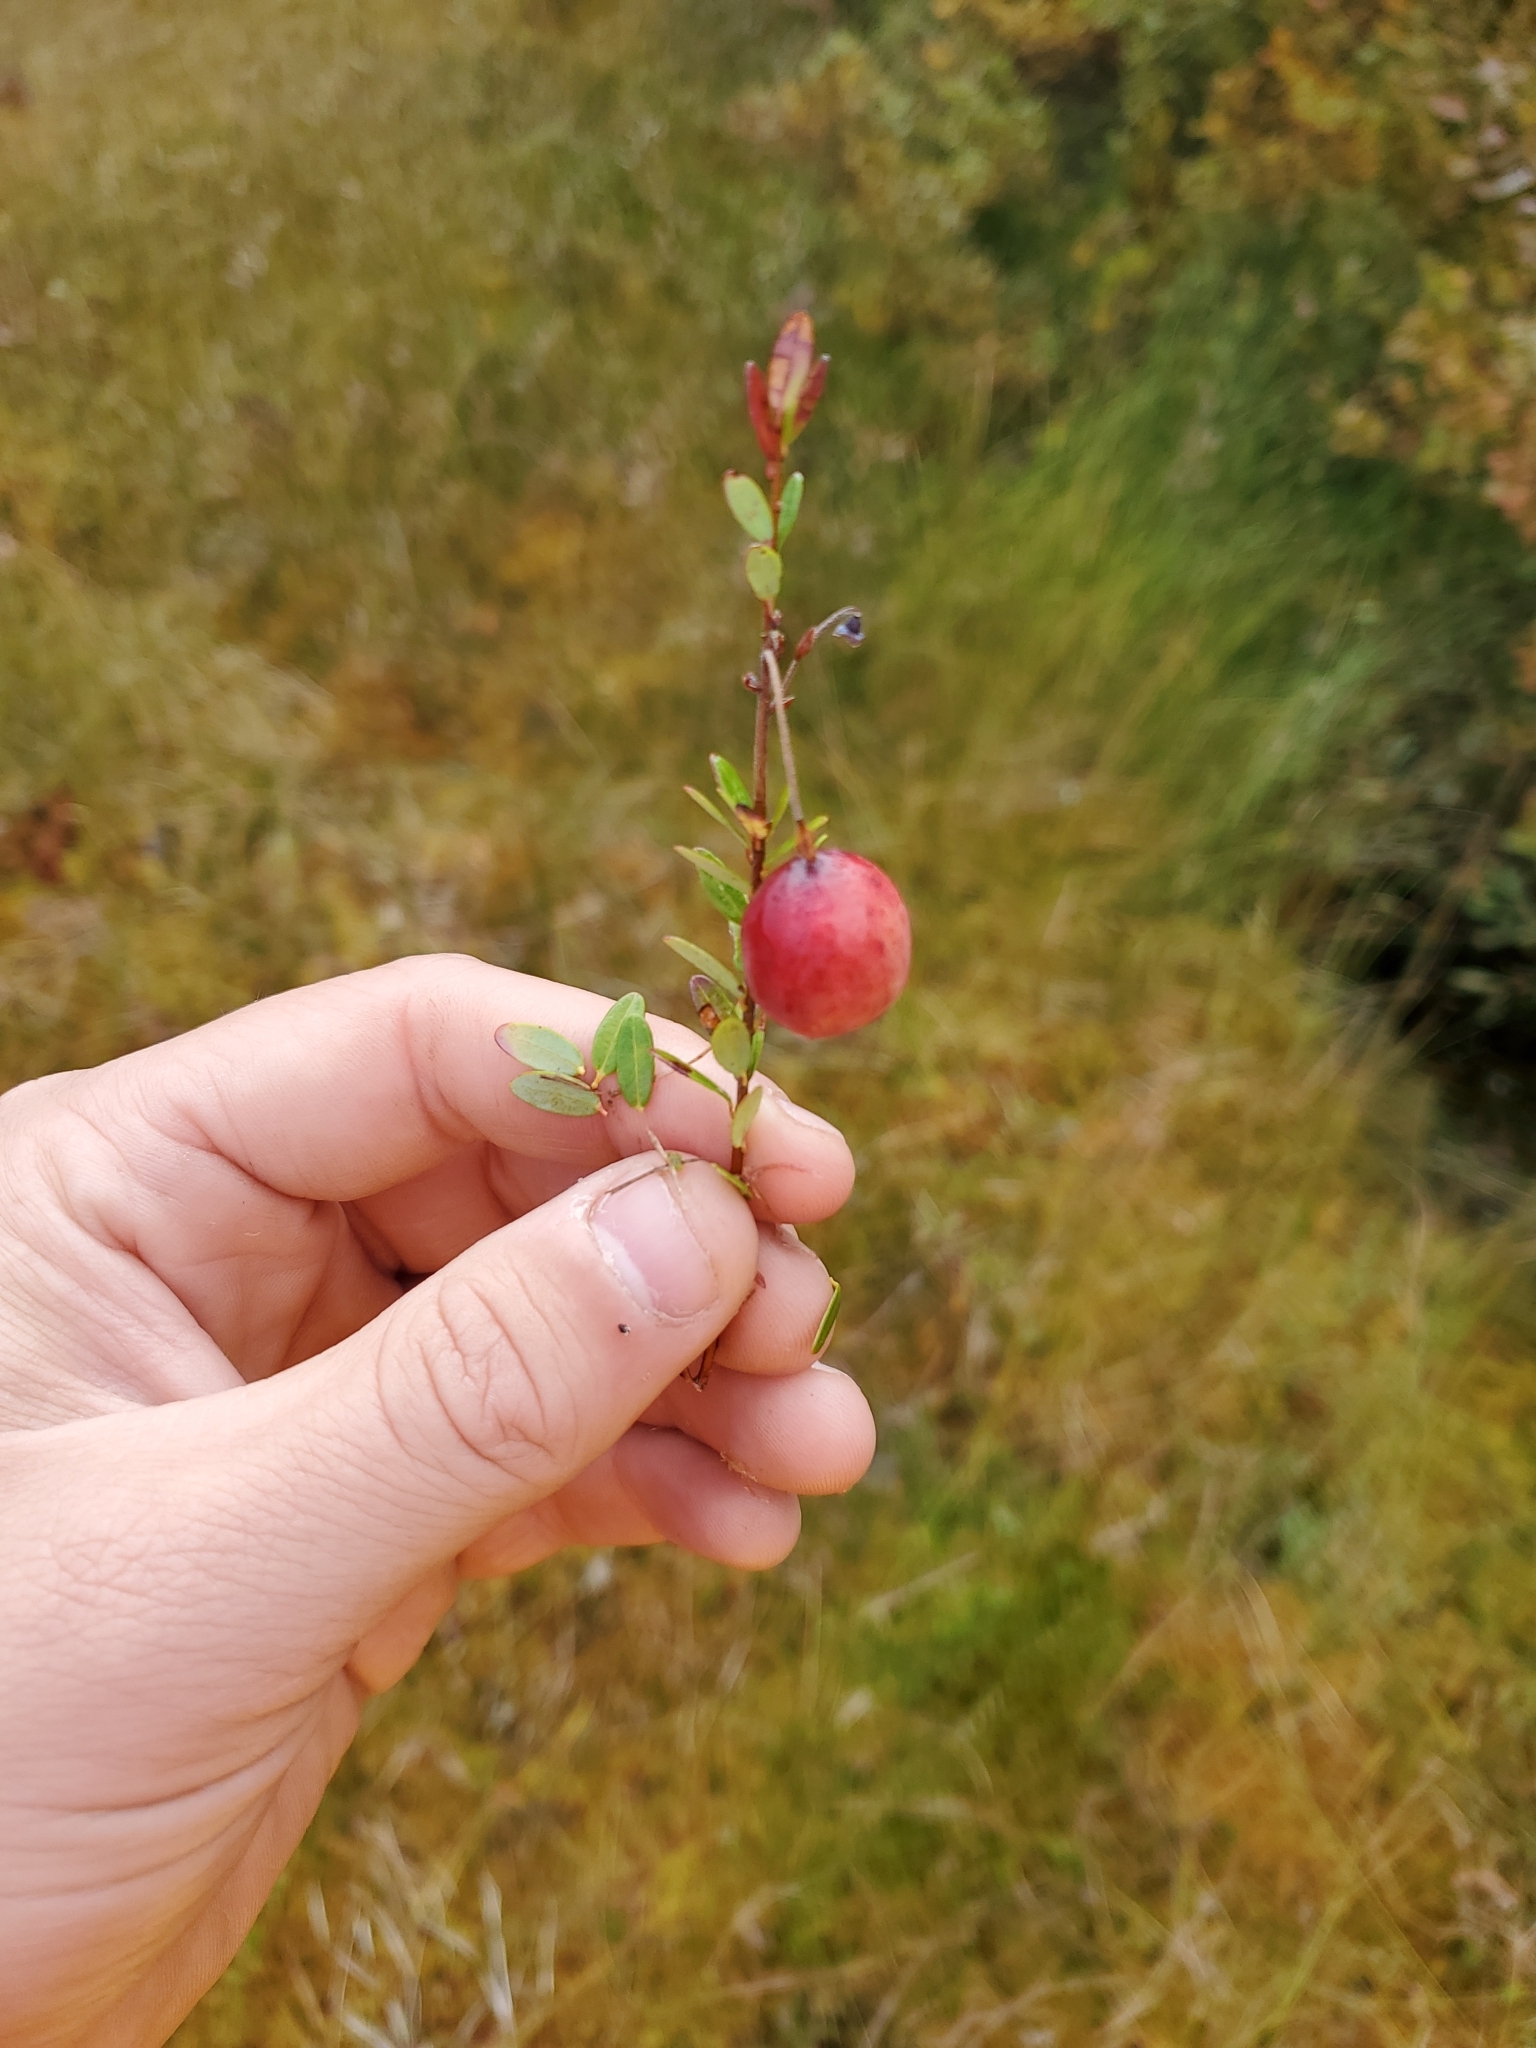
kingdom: Plantae
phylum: Tracheophyta
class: Magnoliopsida
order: Ericales
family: Ericaceae
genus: Vaccinium
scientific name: Vaccinium oxycoccos
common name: Cranberry
